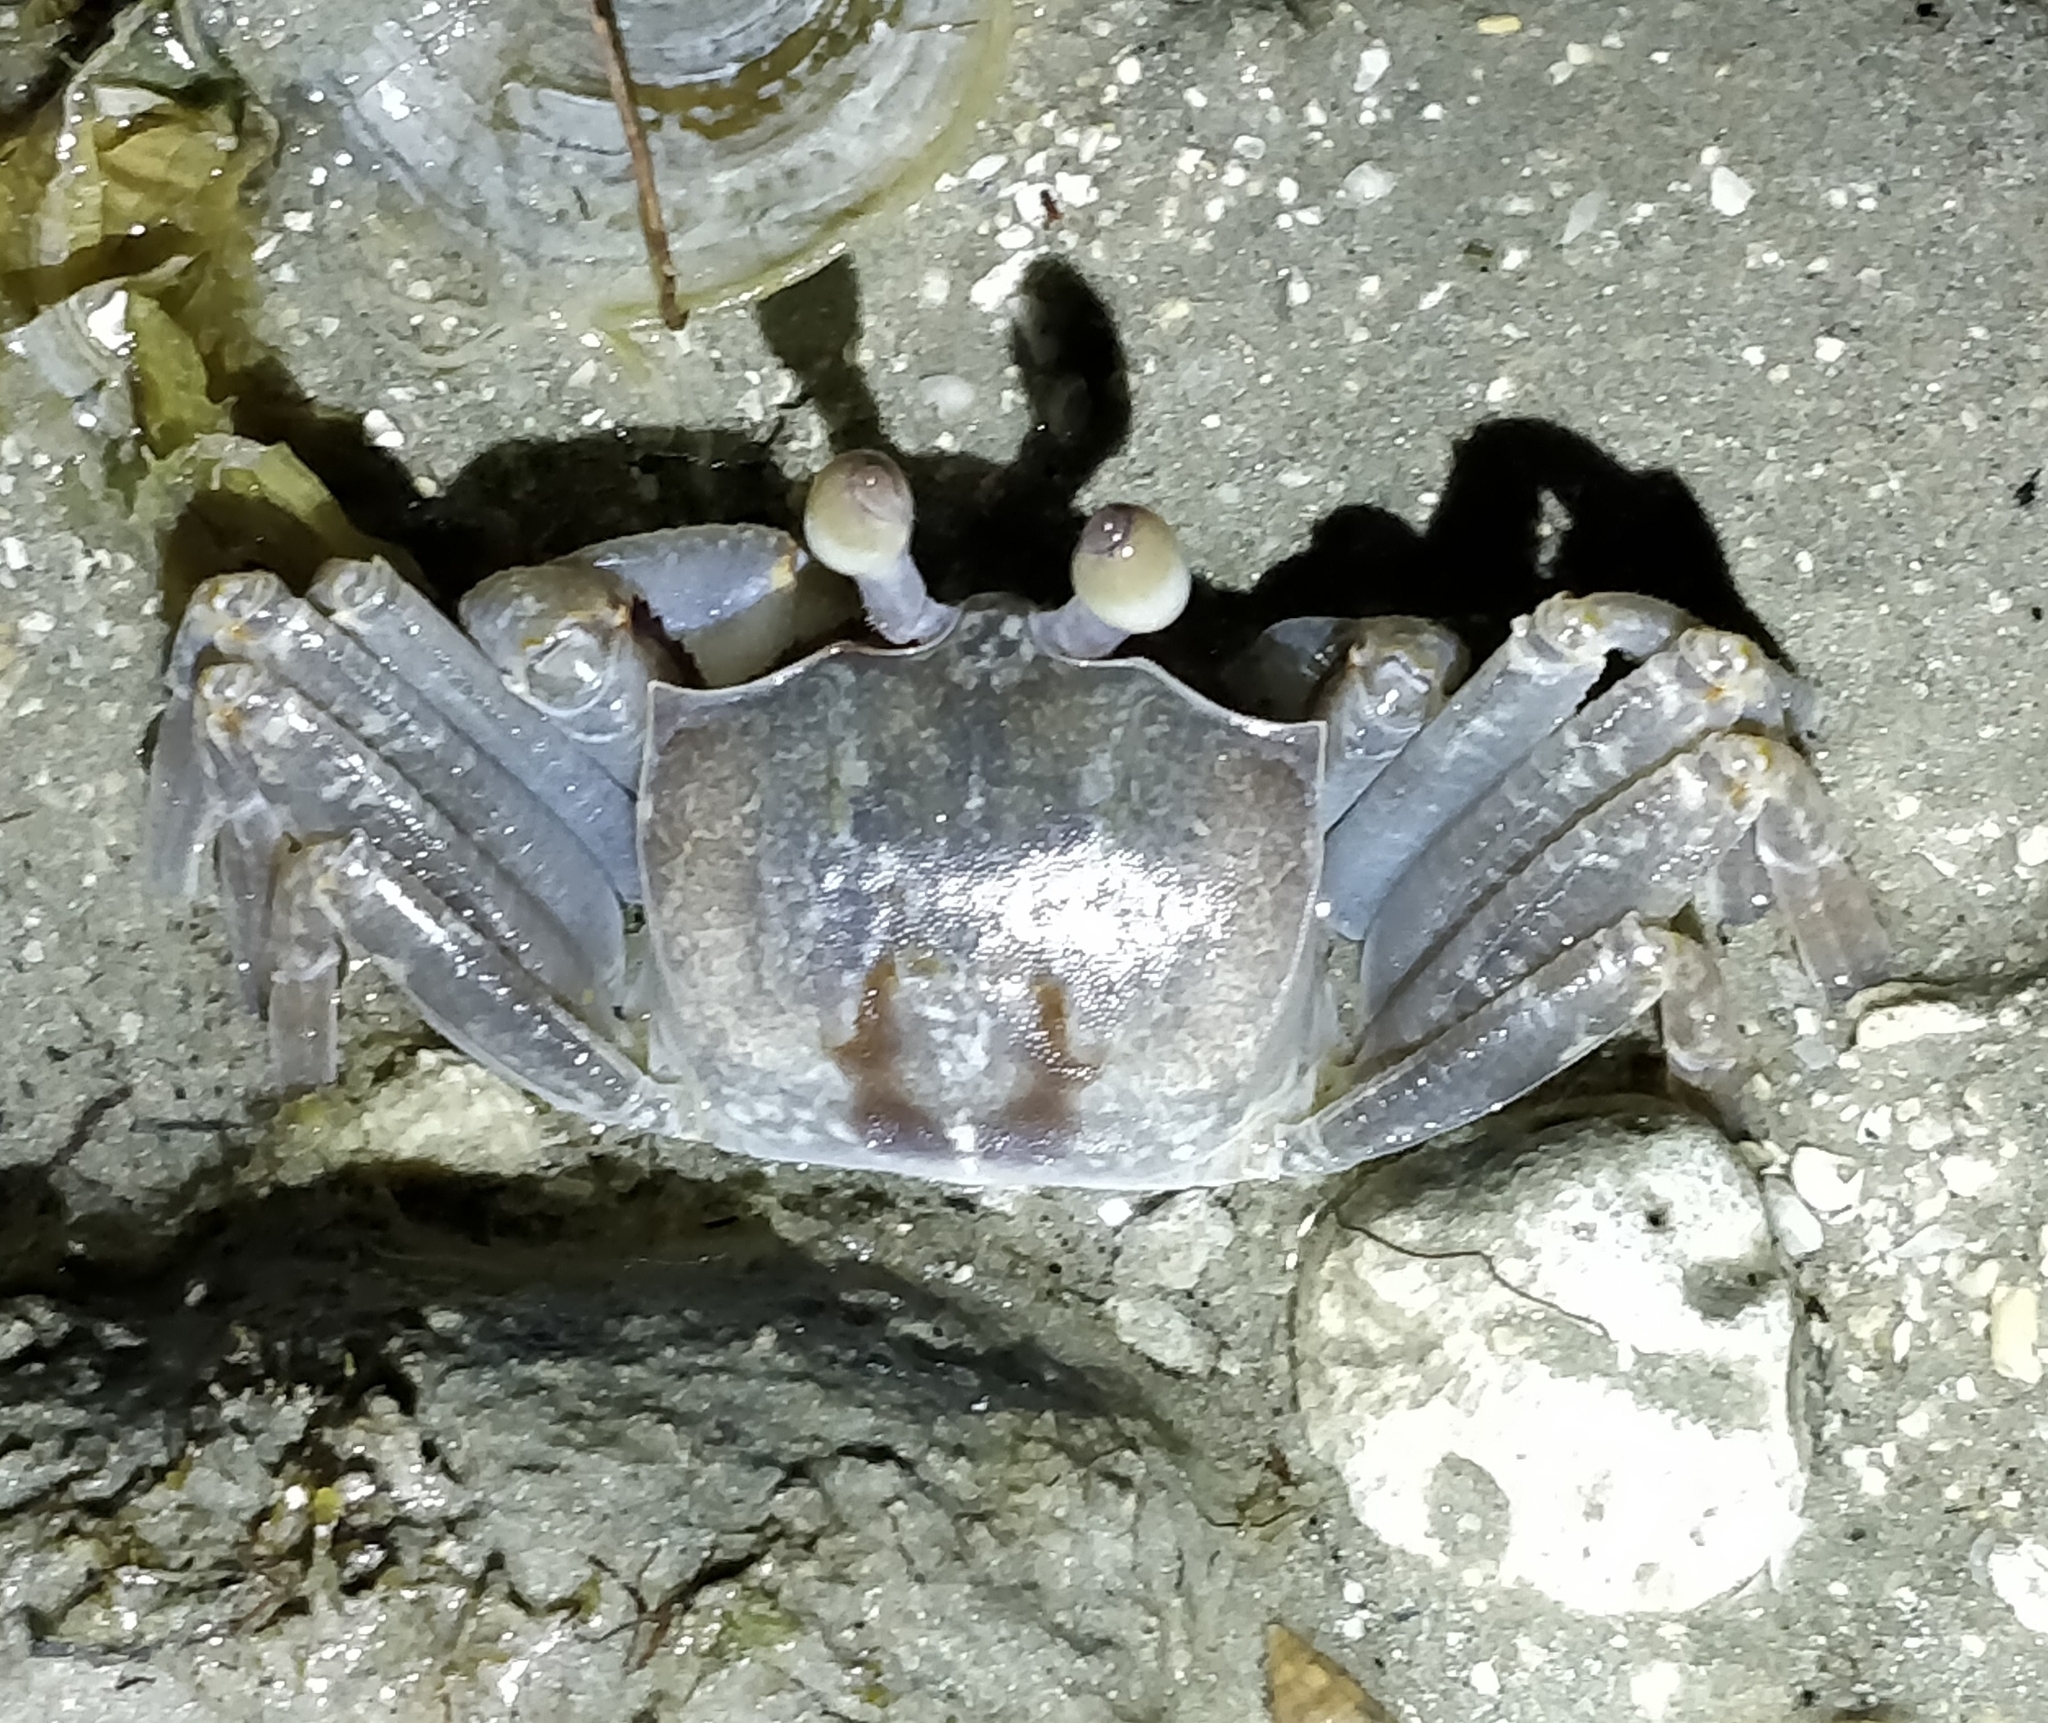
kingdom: Animalia
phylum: Arthropoda
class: Malacostraca
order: Decapoda
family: Ocypodidae
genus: Ocypode
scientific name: Ocypode ceratophthalmus
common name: Indo-pacific ghost crab
